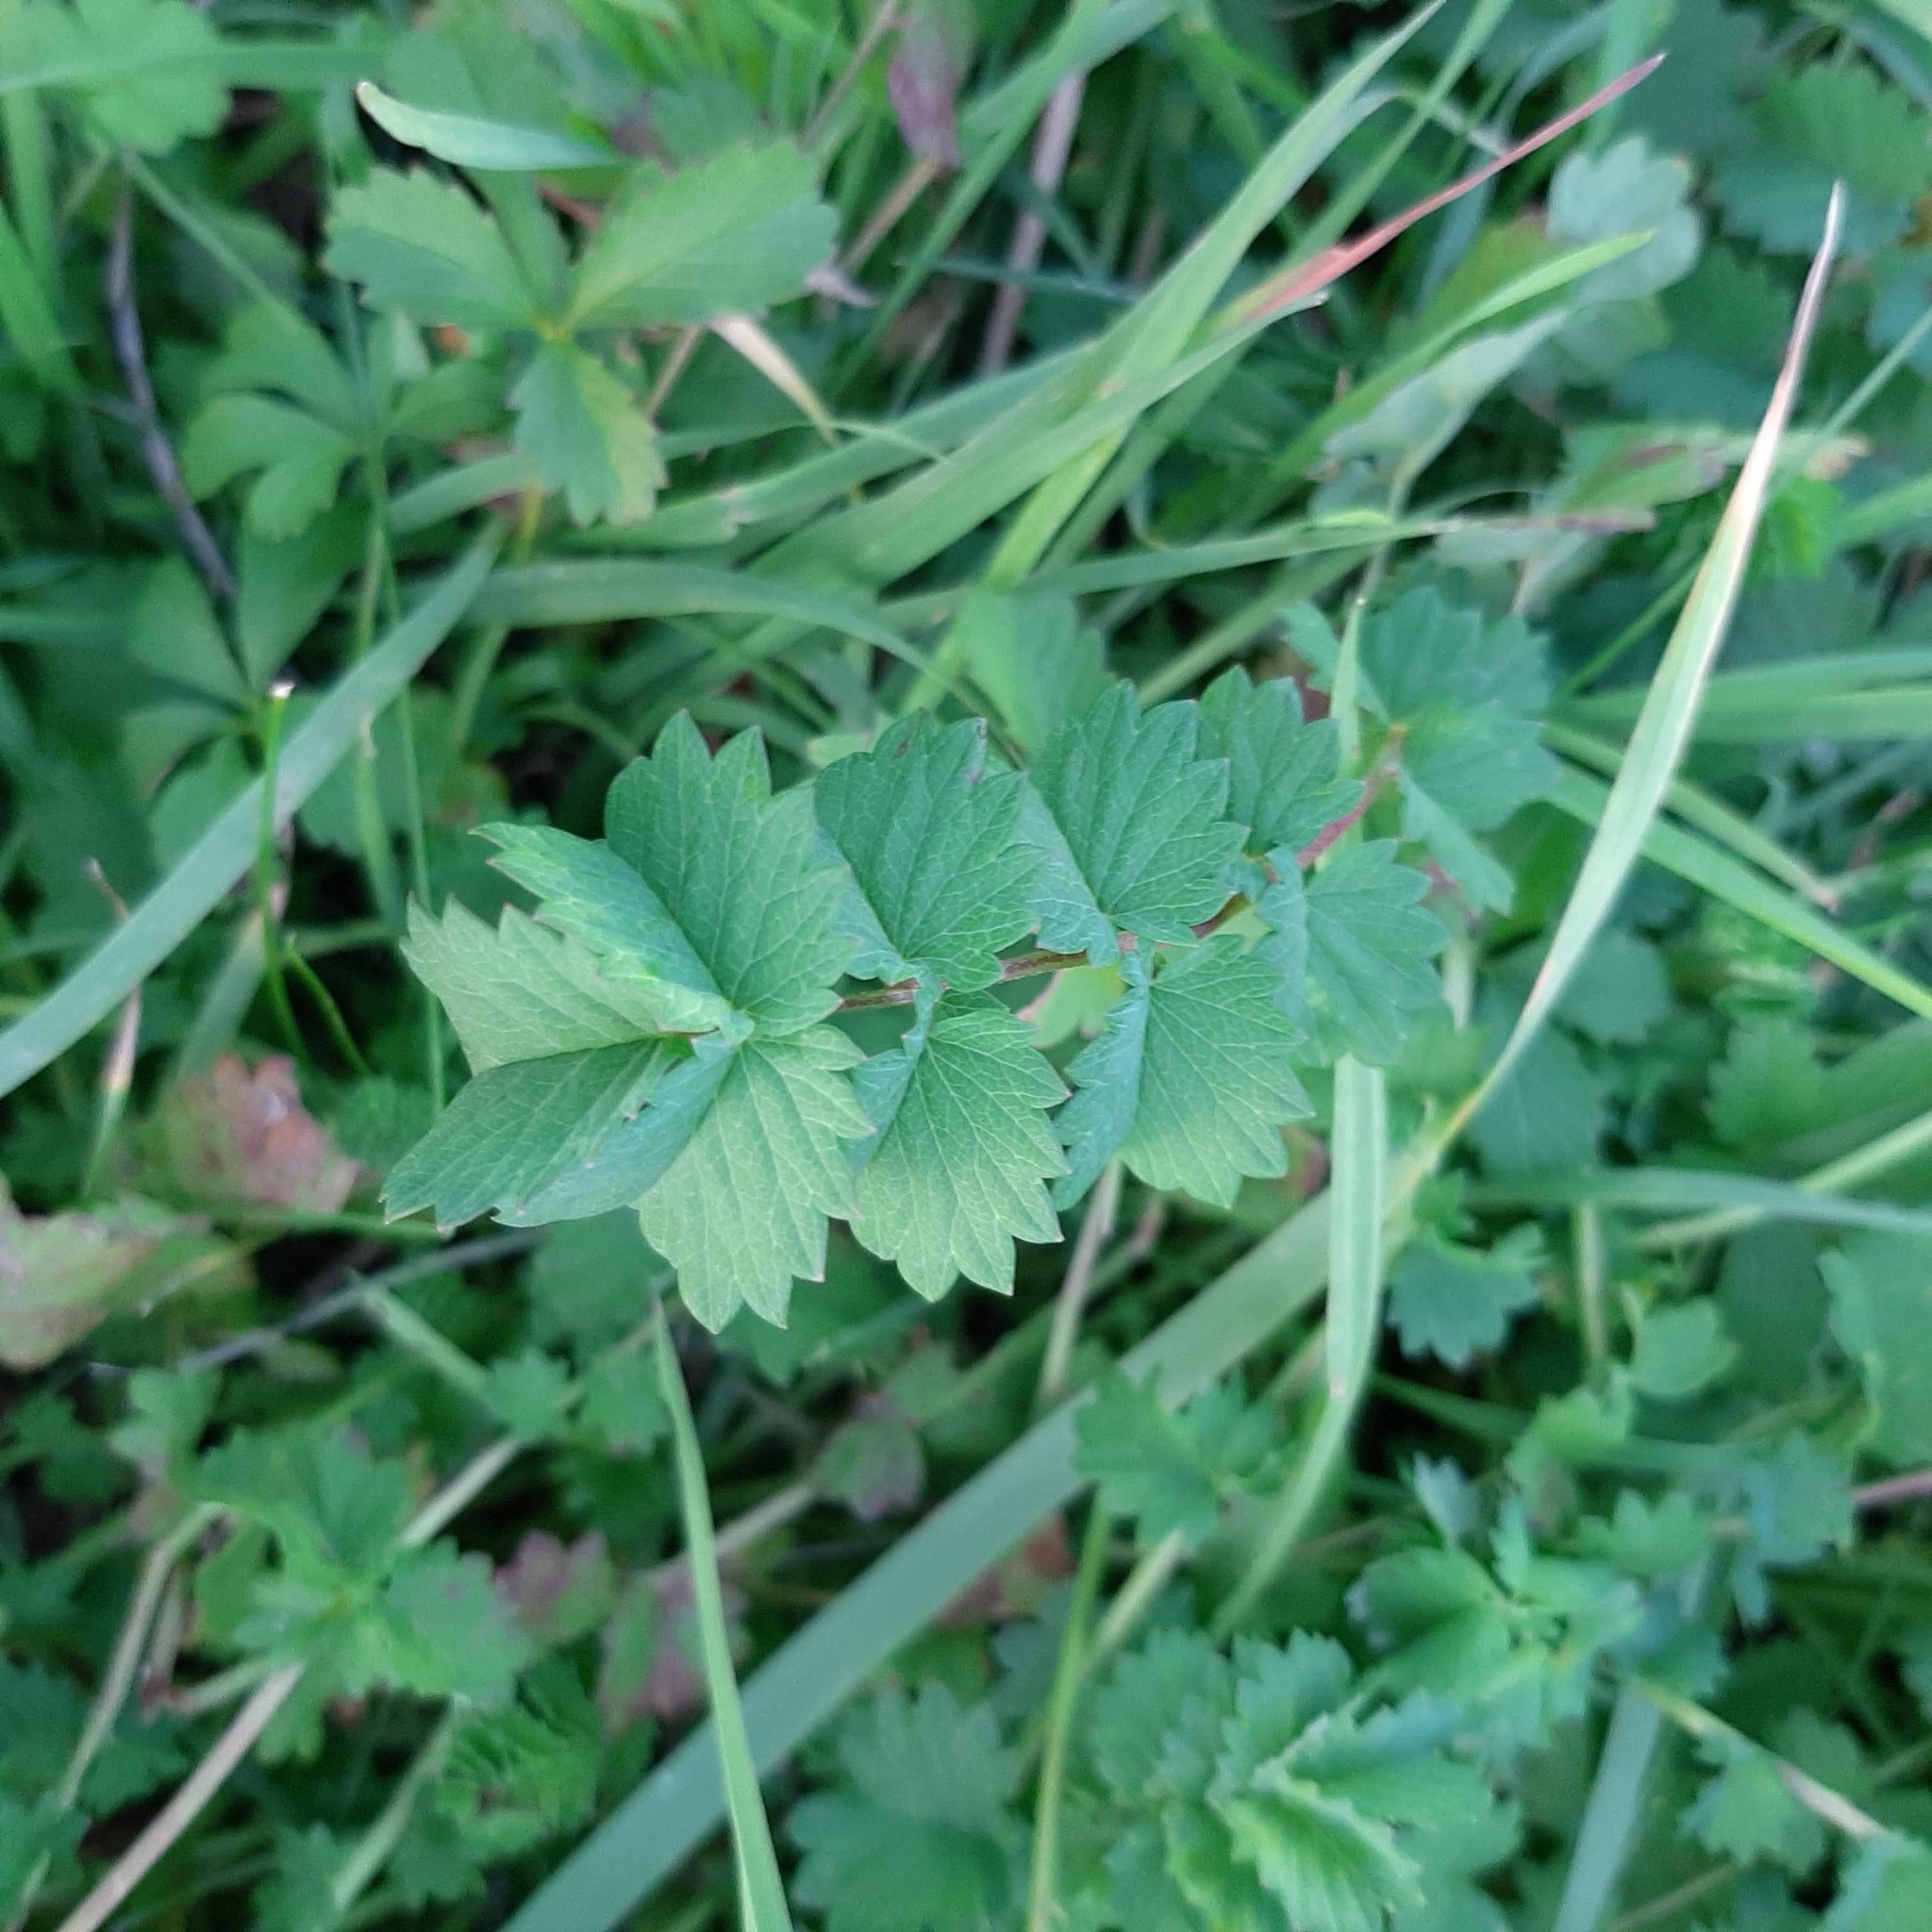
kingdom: Plantae
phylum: Tracheophyta
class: Magnoliopsida
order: Rosales
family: Rosaceae
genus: Poterium
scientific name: Poterium sanguisorba
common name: Salad burnet
